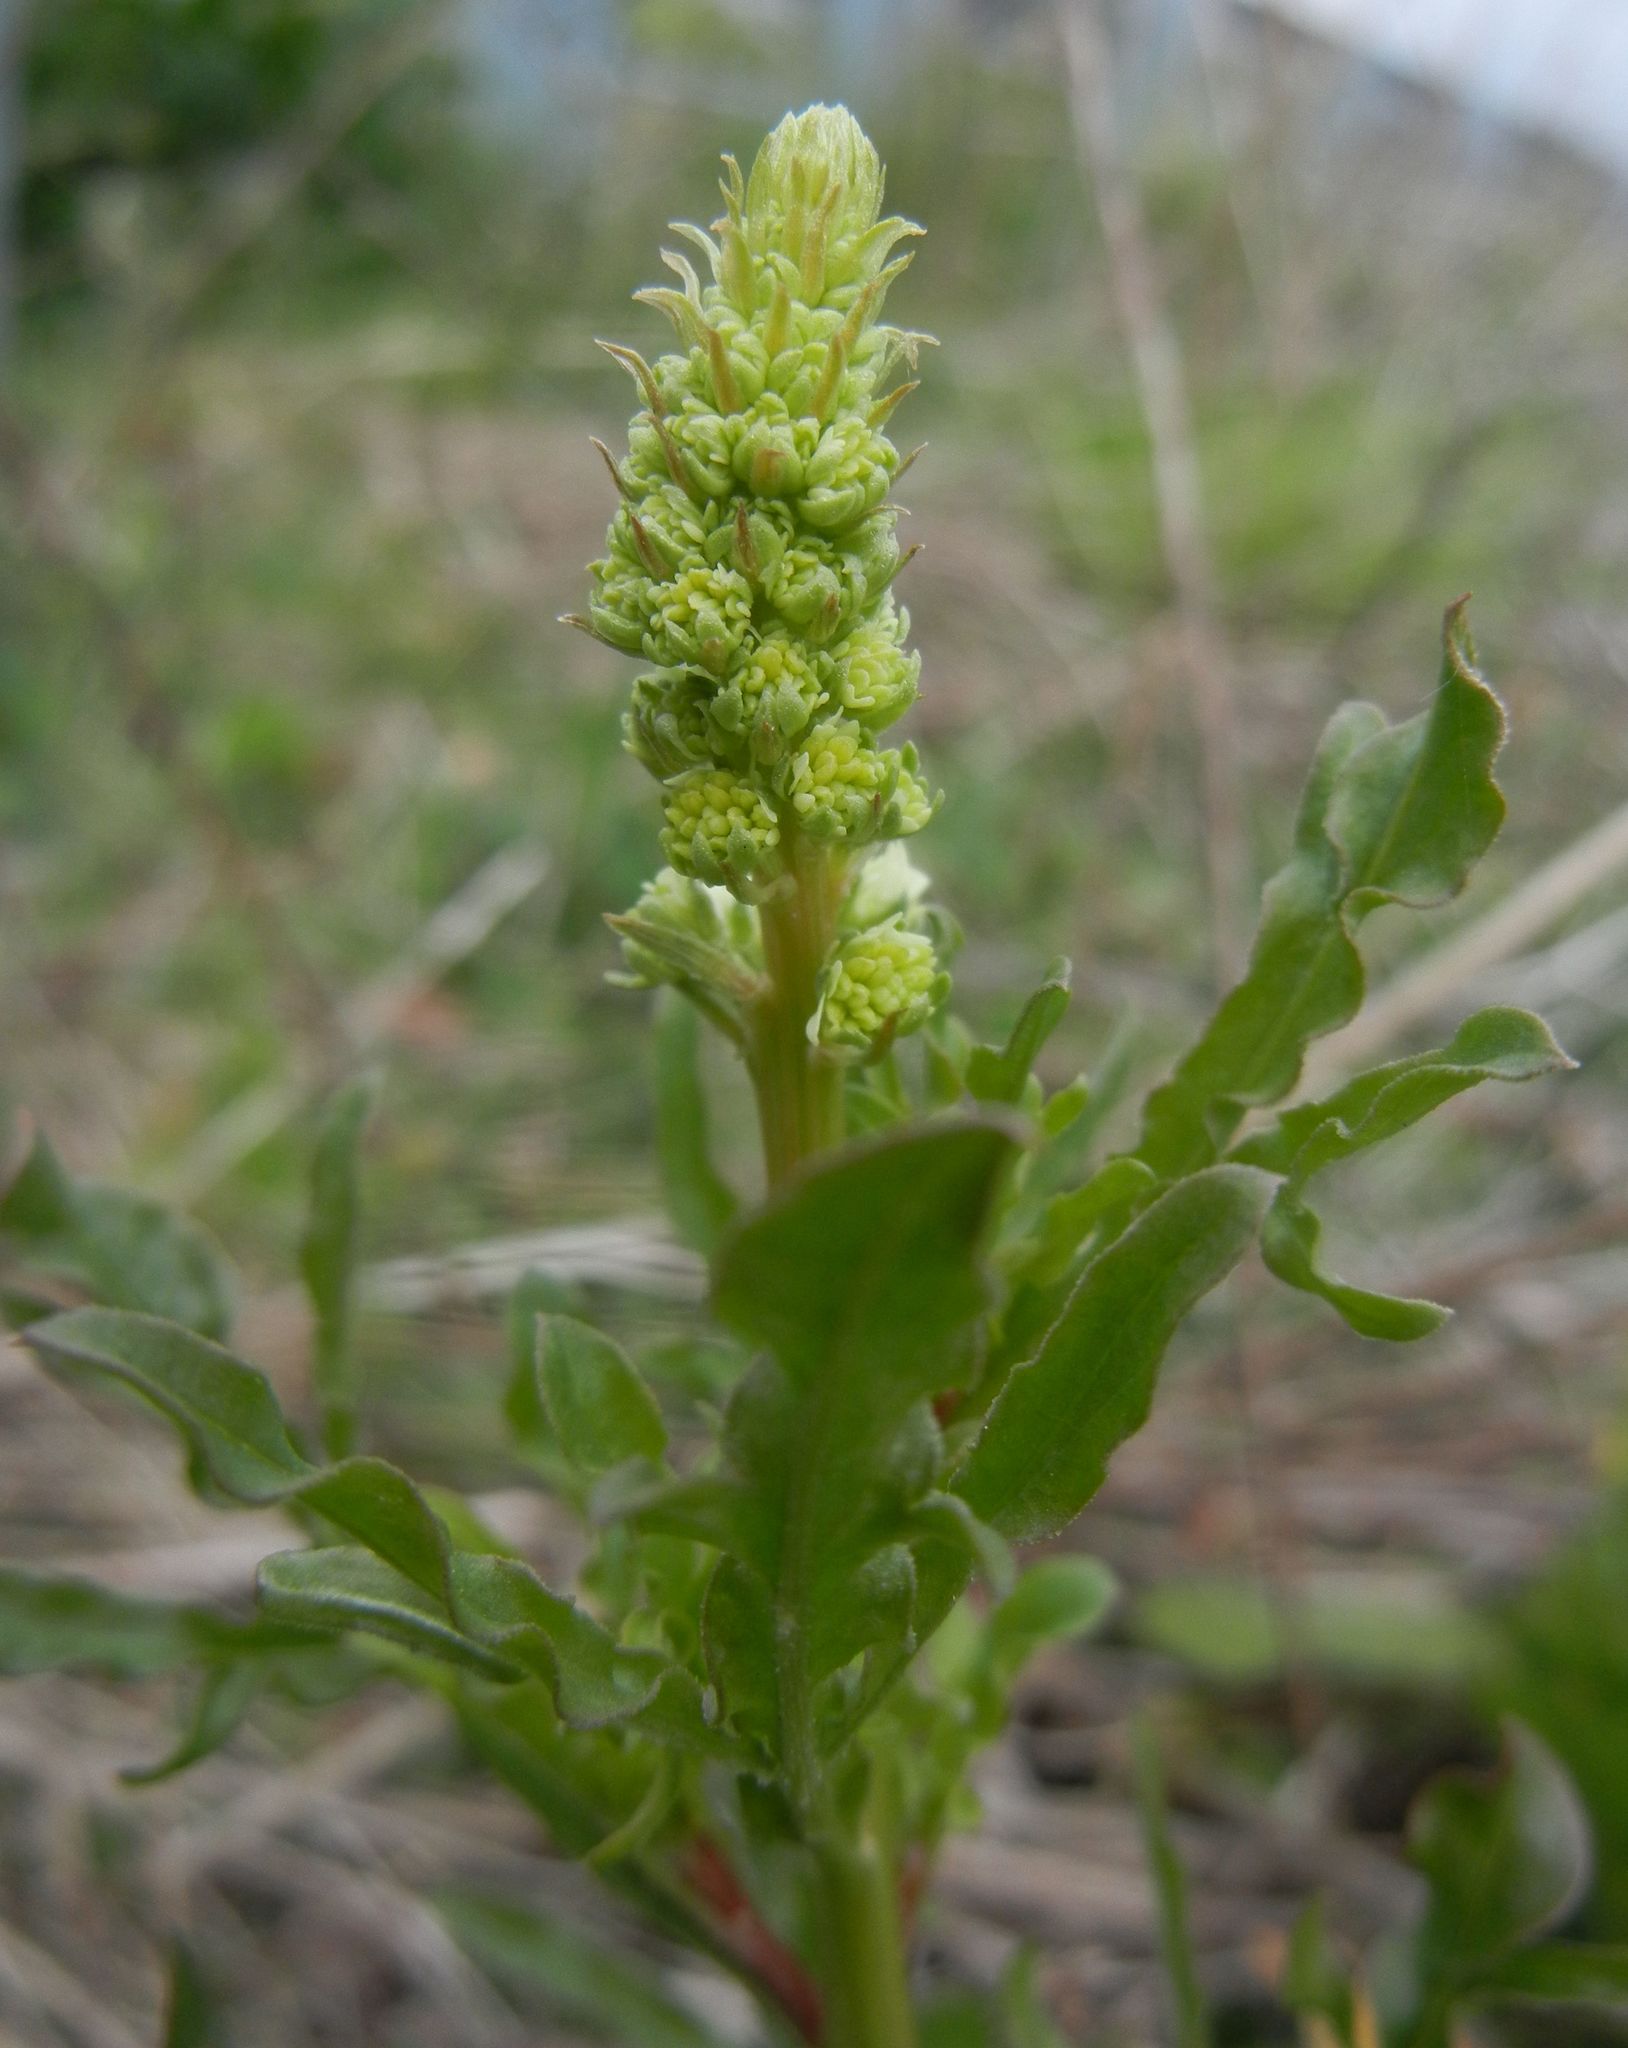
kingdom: Plantae
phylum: Tracheophyta
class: Magnoliopsida
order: Brassicales
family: Resedaceae
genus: Reseda
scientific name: Reseda lutea
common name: Wild mignonette
